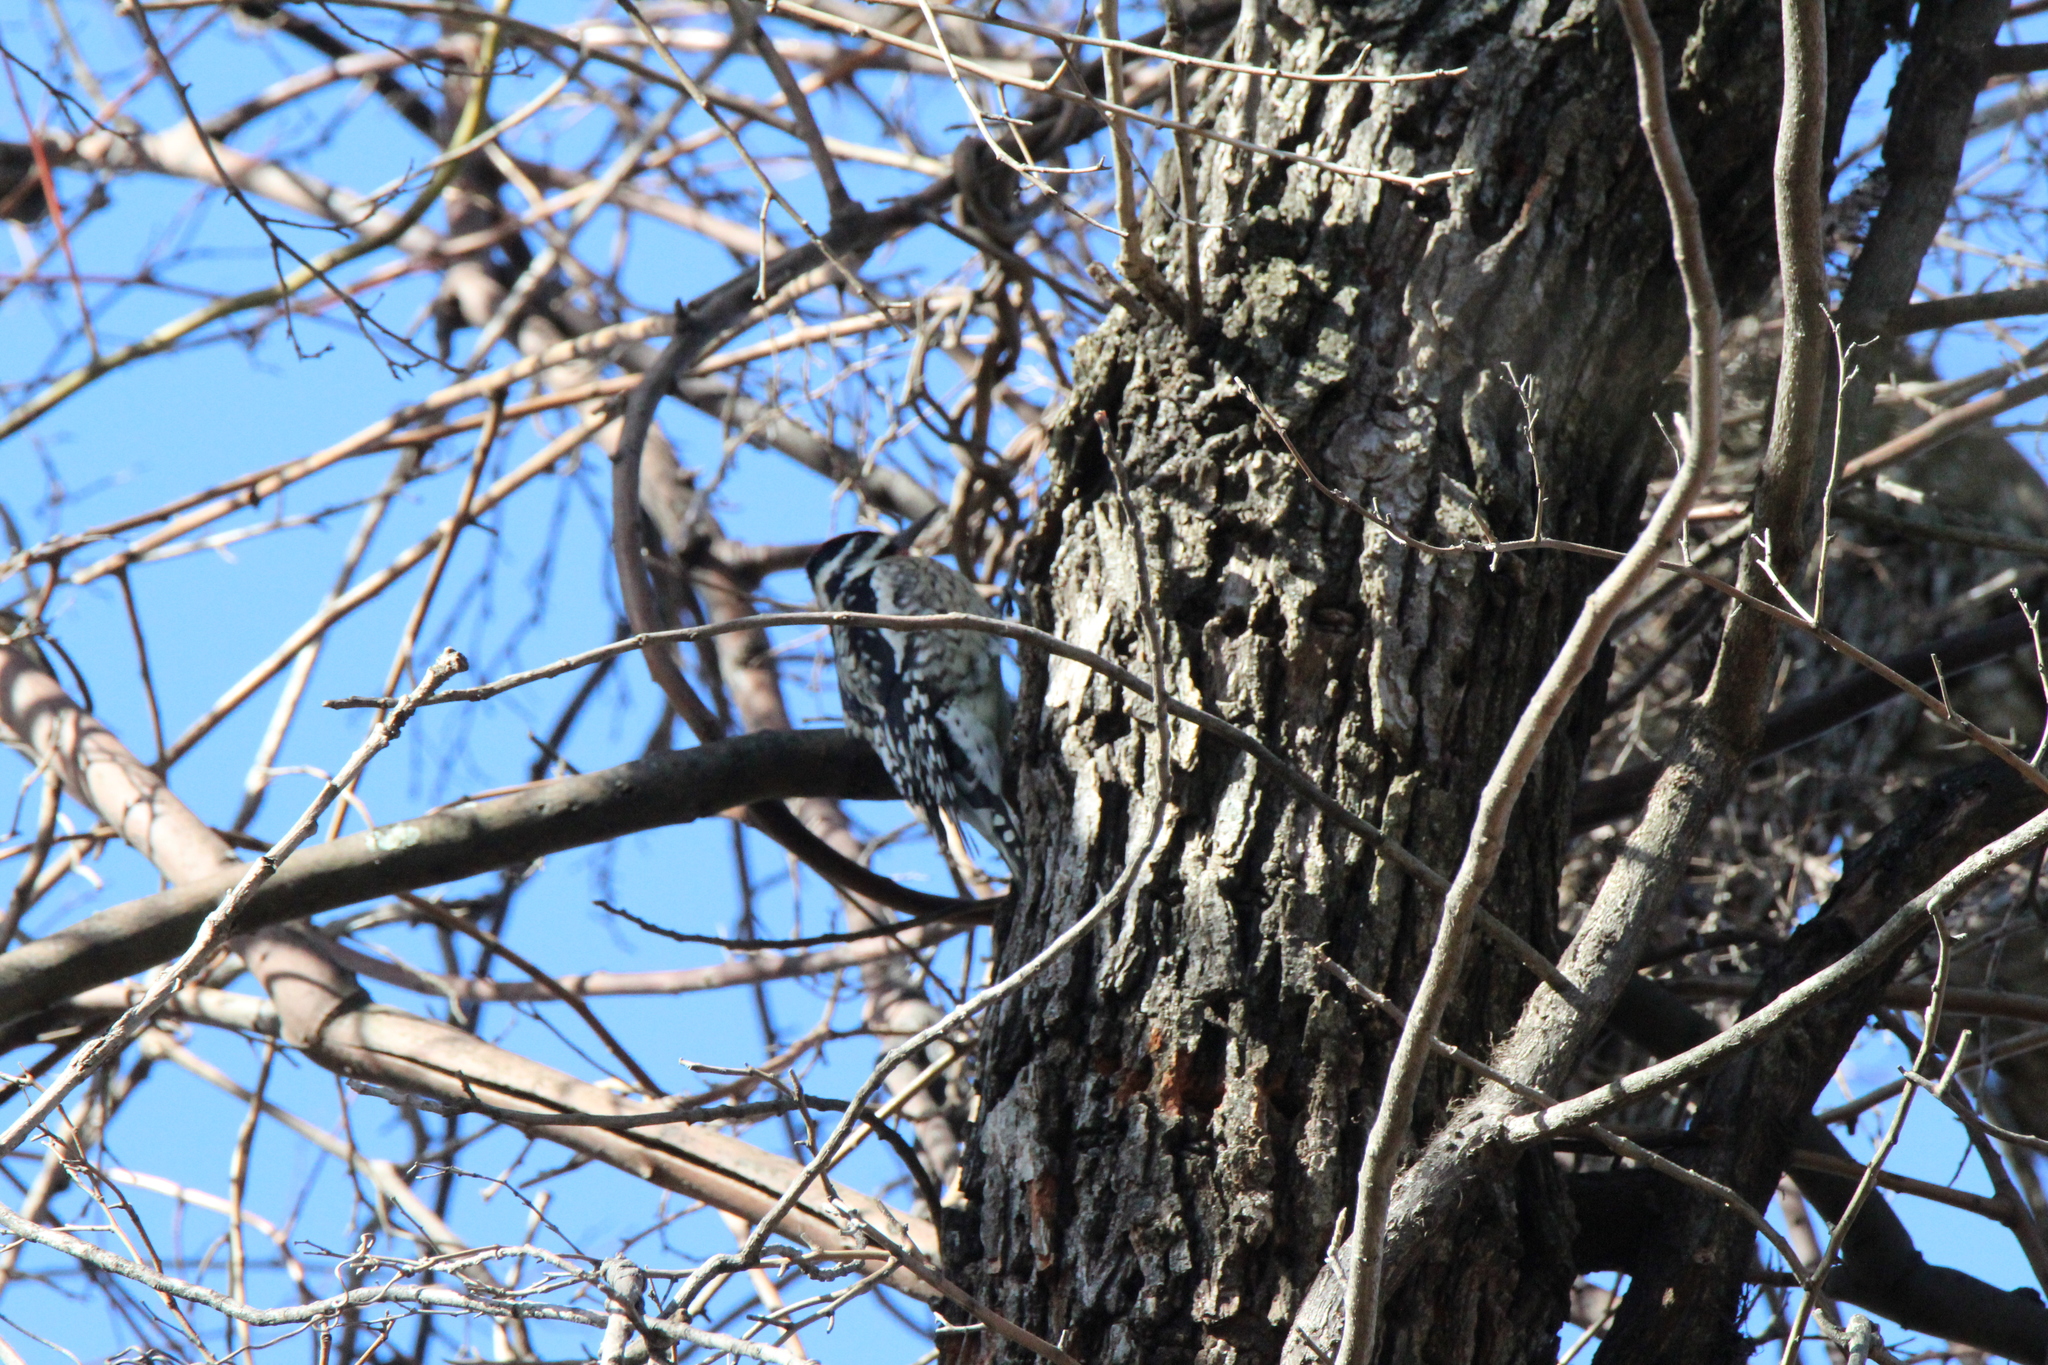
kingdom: Animalia
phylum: Chordata
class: Aves
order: Piciformes
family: Picidae
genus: Sphyrapicus
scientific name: Sphyrapicus varius
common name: Yellow-bellied sapsucker
